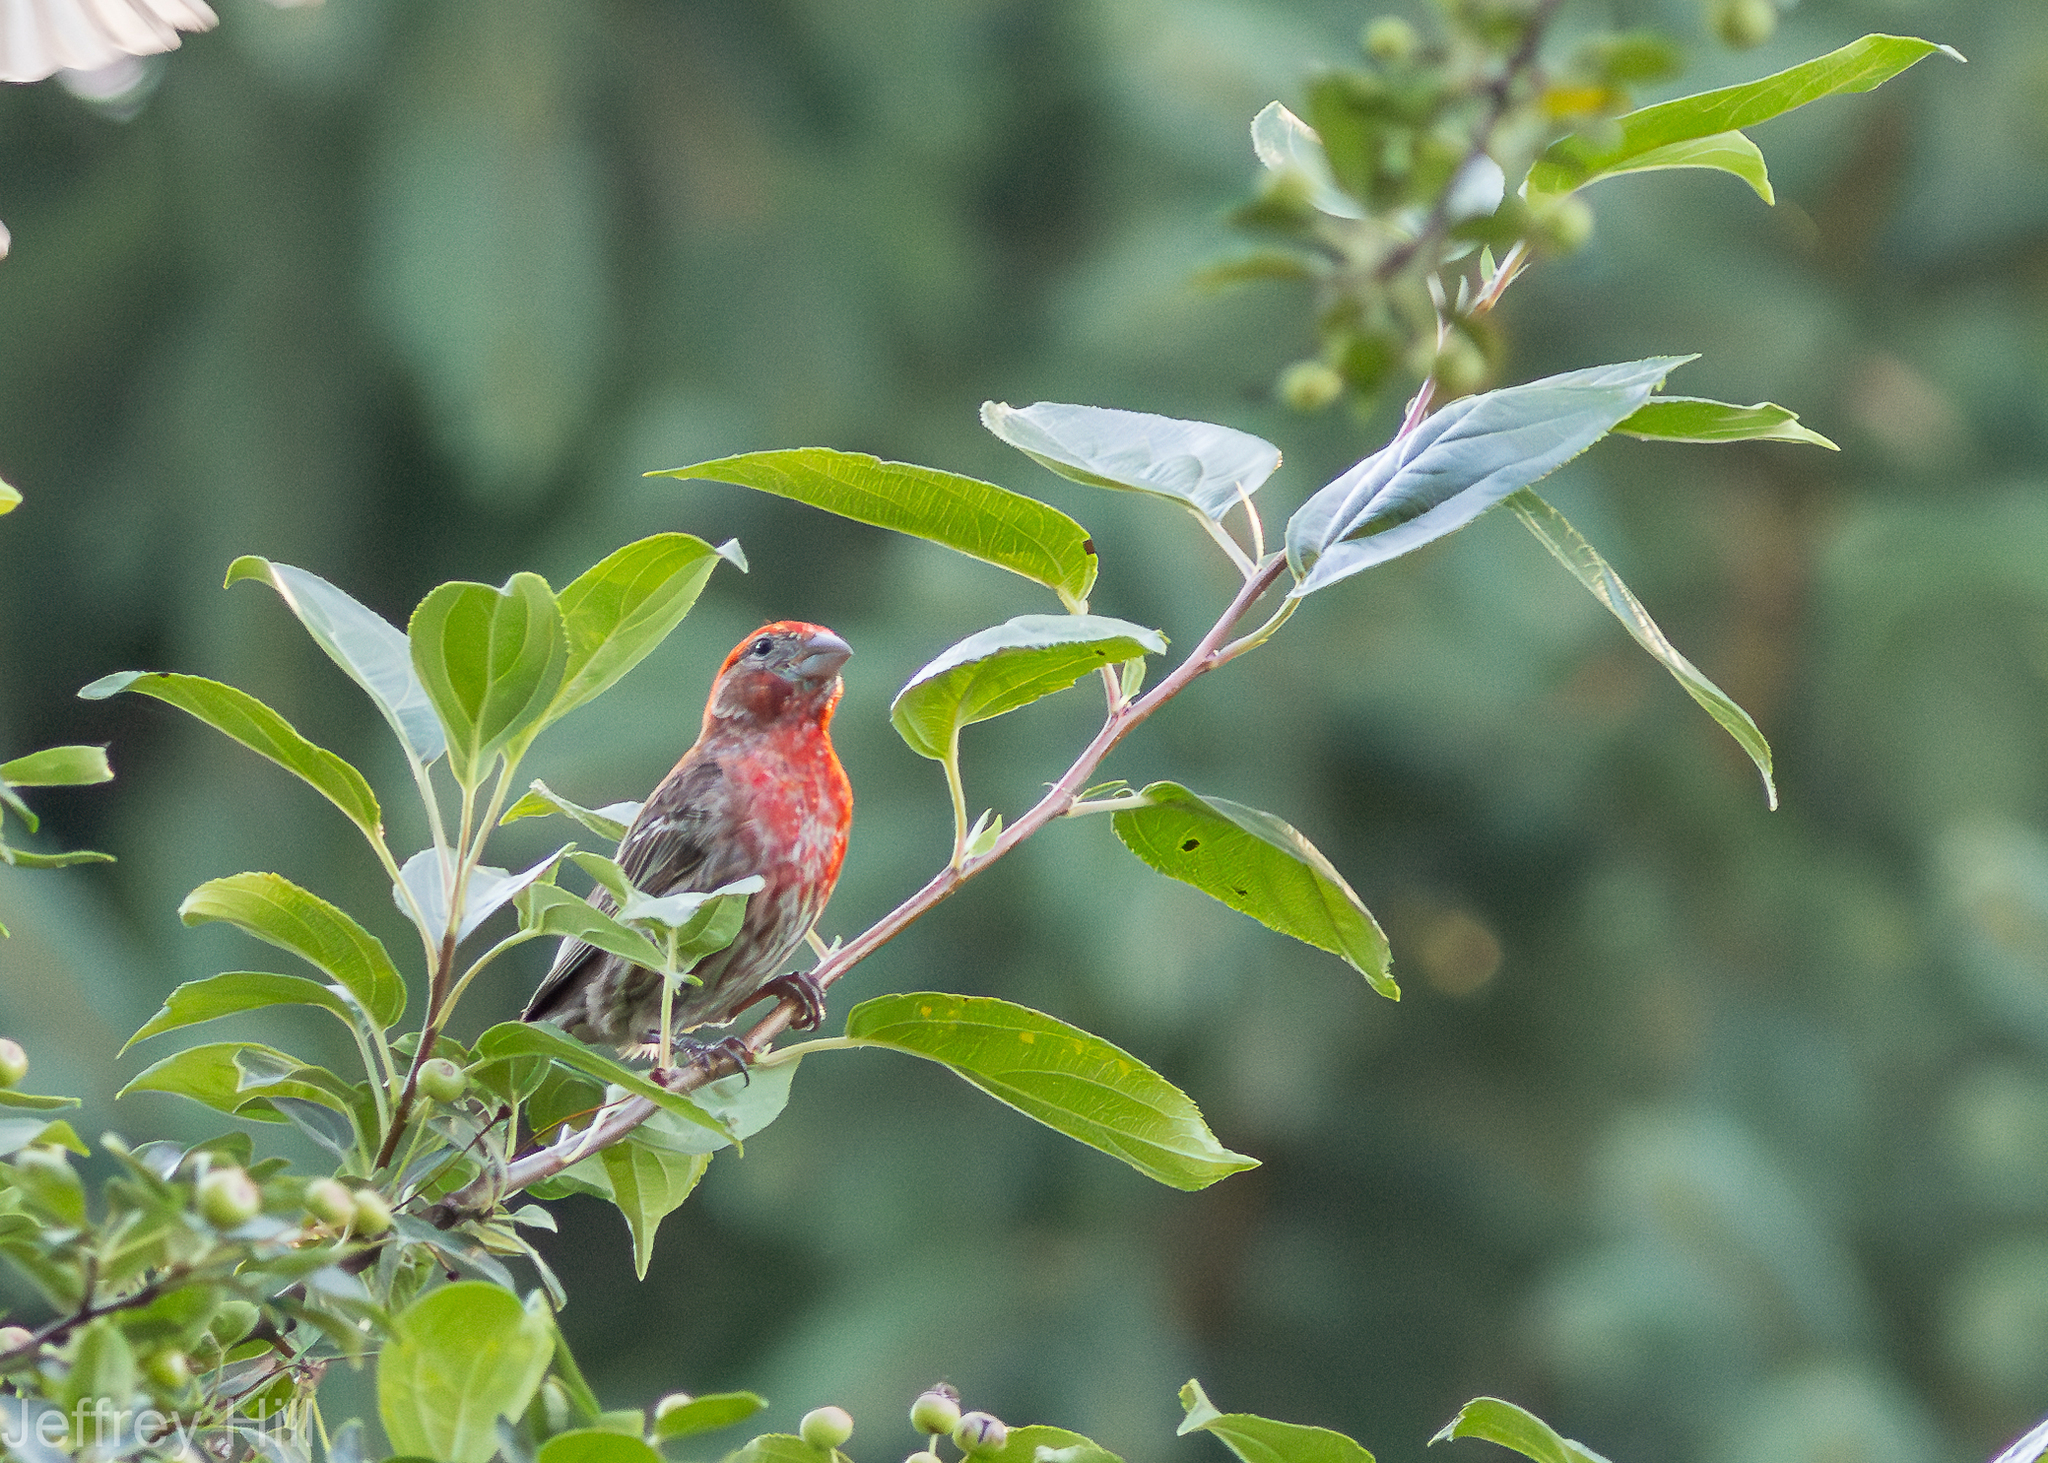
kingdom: Animalia
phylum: Chordata
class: Aves
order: Passeriformes
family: Fringillidae
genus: Haemorhous
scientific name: Haemorhous mexicanus
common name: House finch
